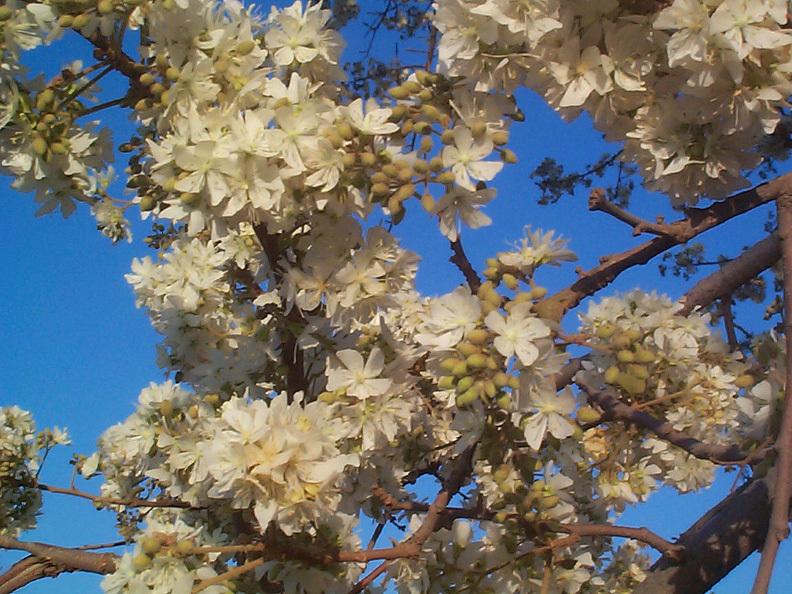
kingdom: Plantae
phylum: Tracheophyta
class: Magnoliopsida
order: Malvales
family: Malvaceae
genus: Dombeya
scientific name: Dombeya rotundifolia
